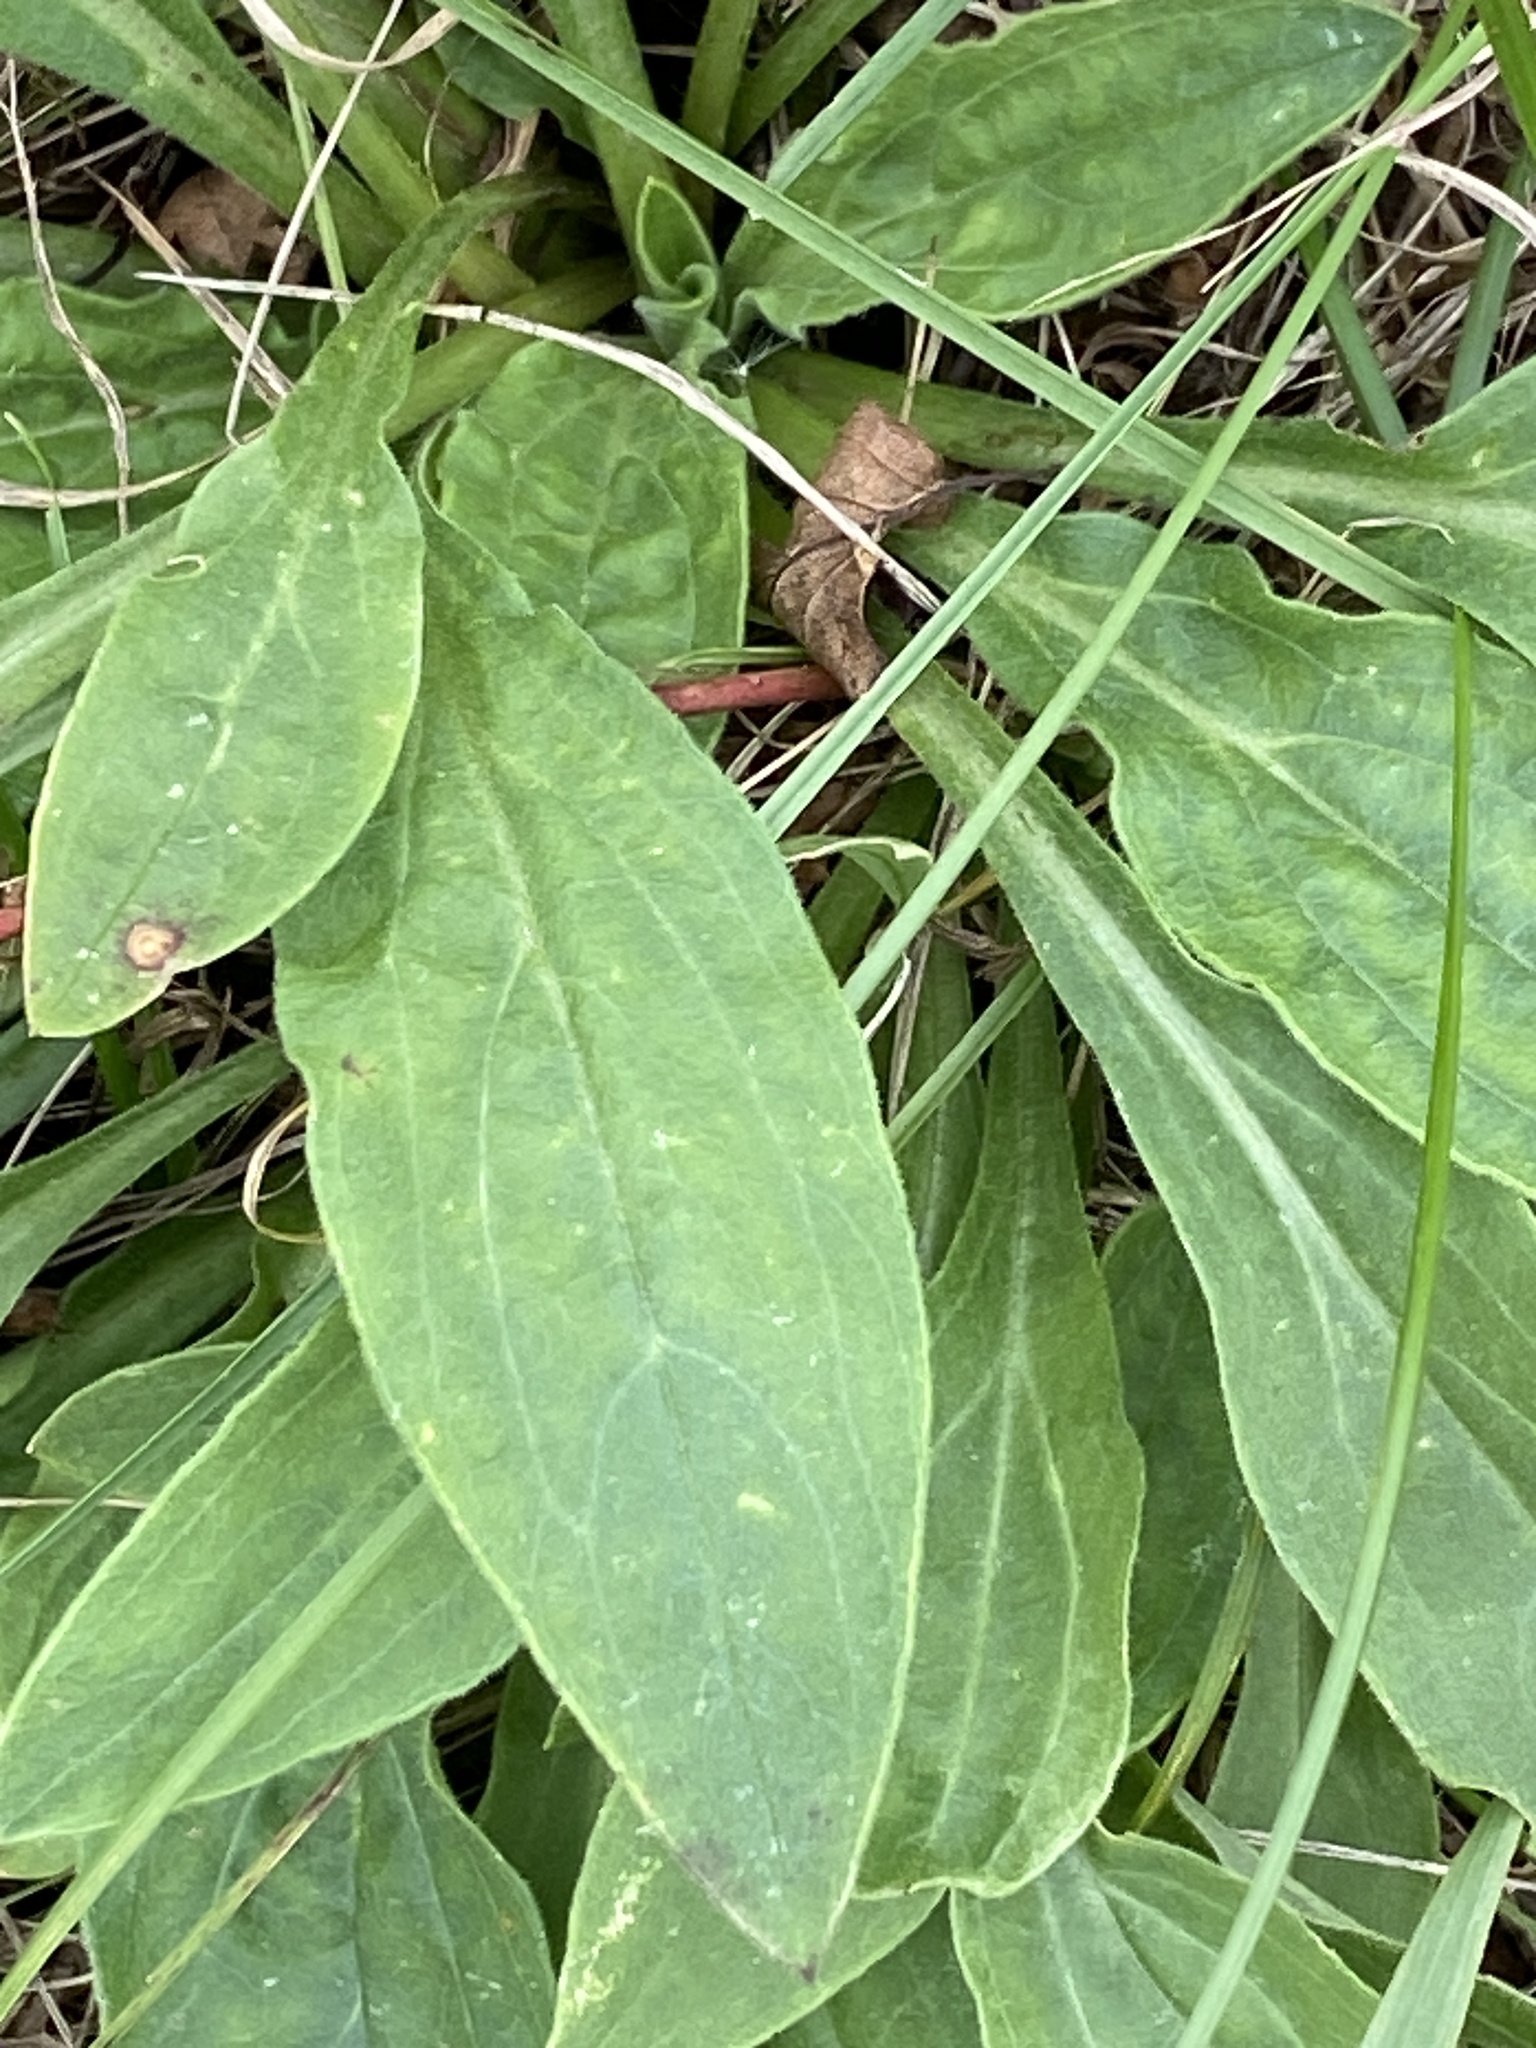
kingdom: Plantae
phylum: Tracheophyta
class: Magnoliopsida
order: Caryophyllales
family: Caryophyllaceae
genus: Silene
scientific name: Silene latifolia
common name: White campion
